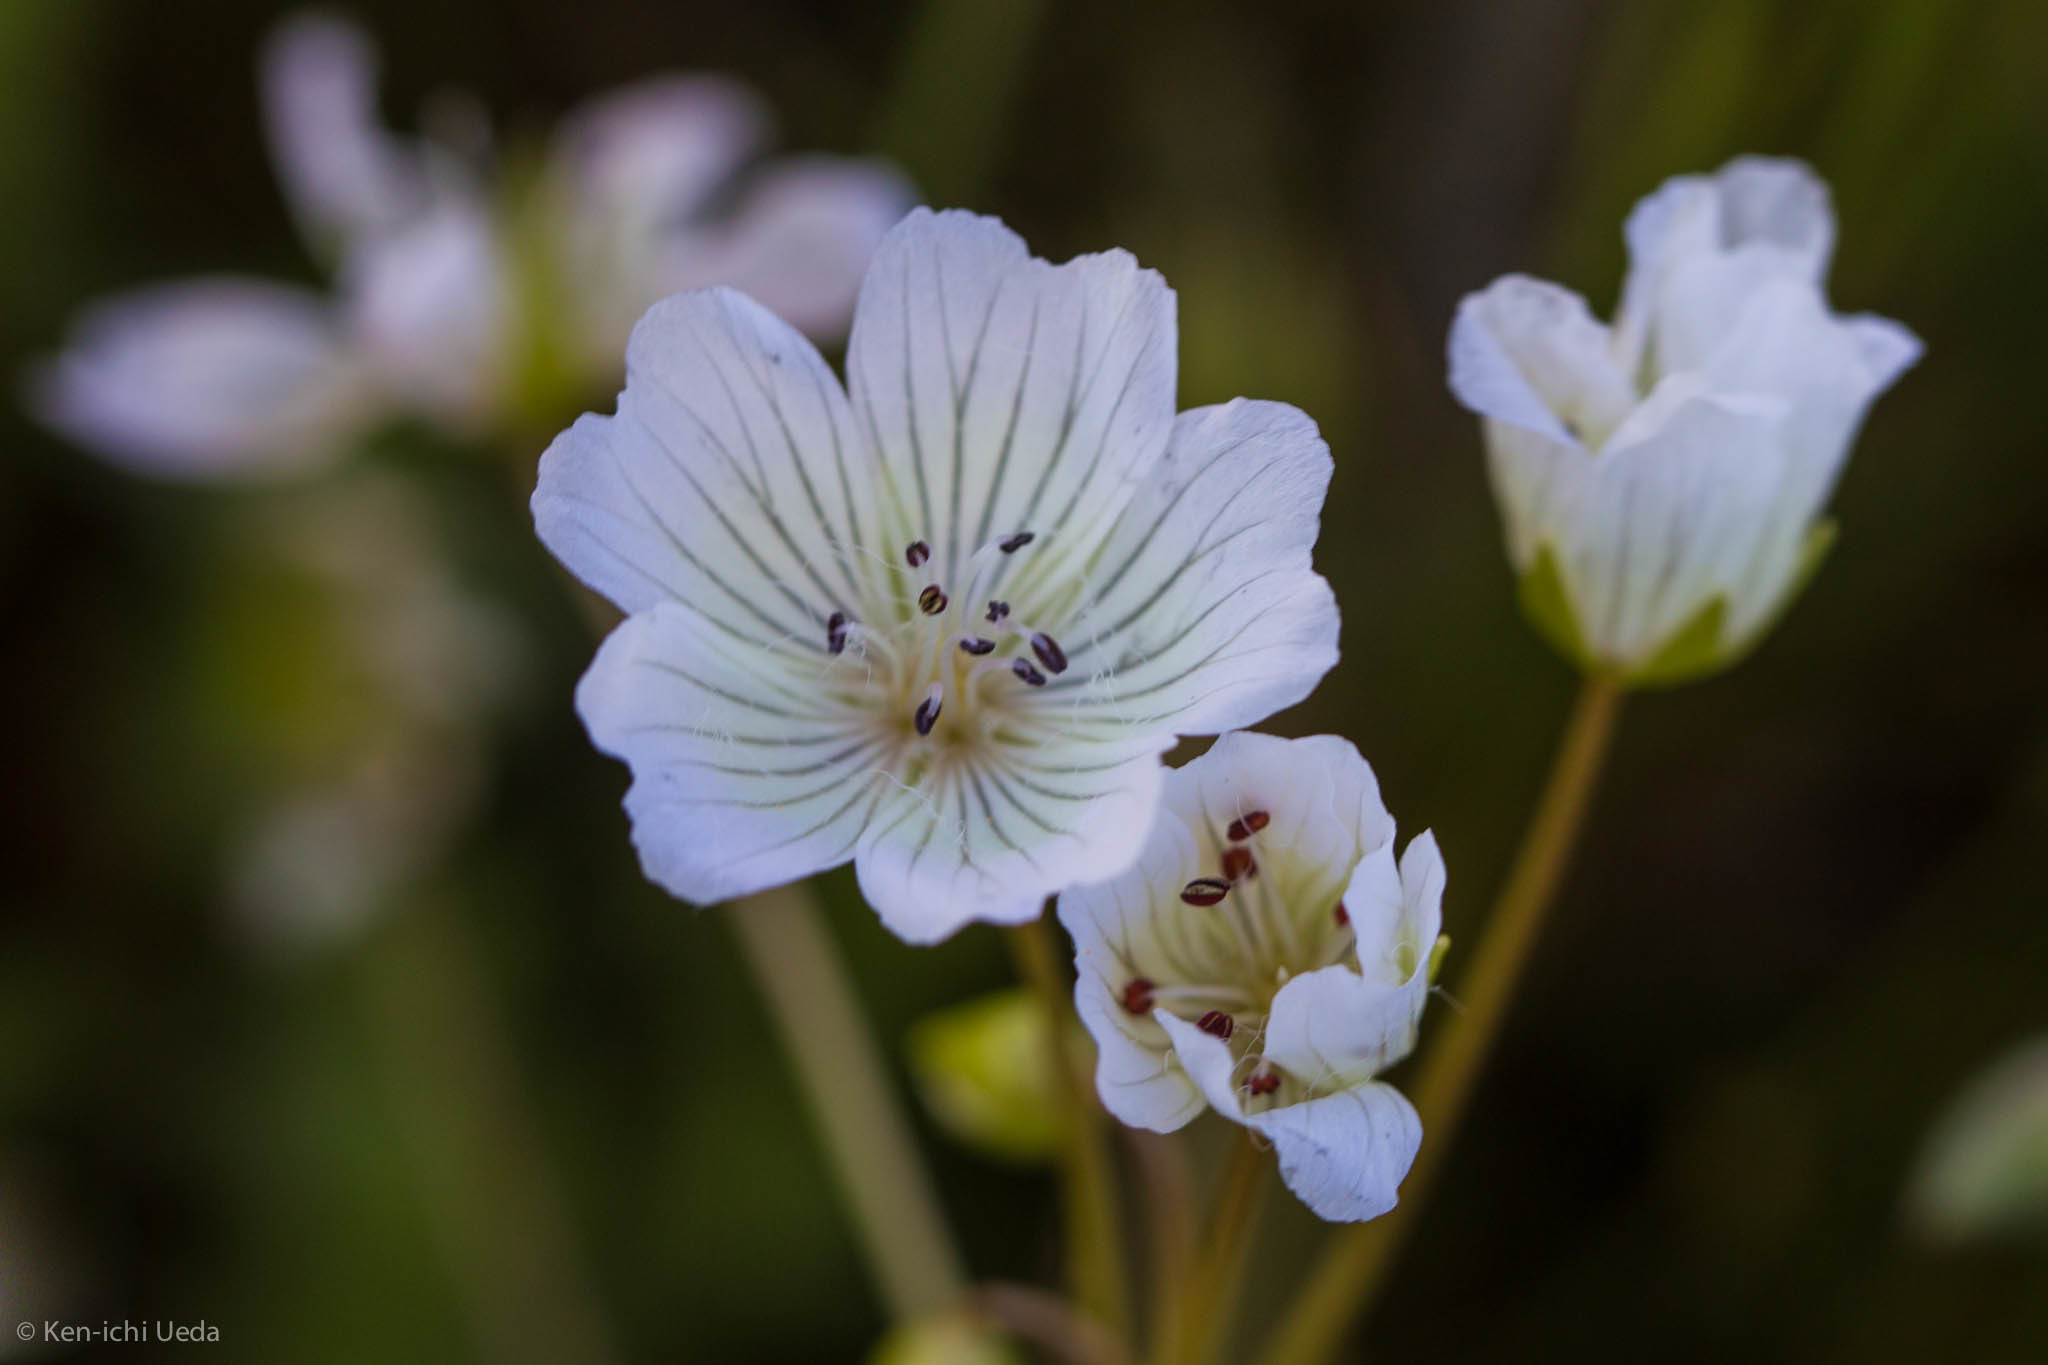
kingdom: Plantae
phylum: Tracheophyta
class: Magnoliopsida
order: Brassicales
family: Limnanthaceae
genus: Limnanthes
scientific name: Limnanthes douglasii
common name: Meadow-foam
